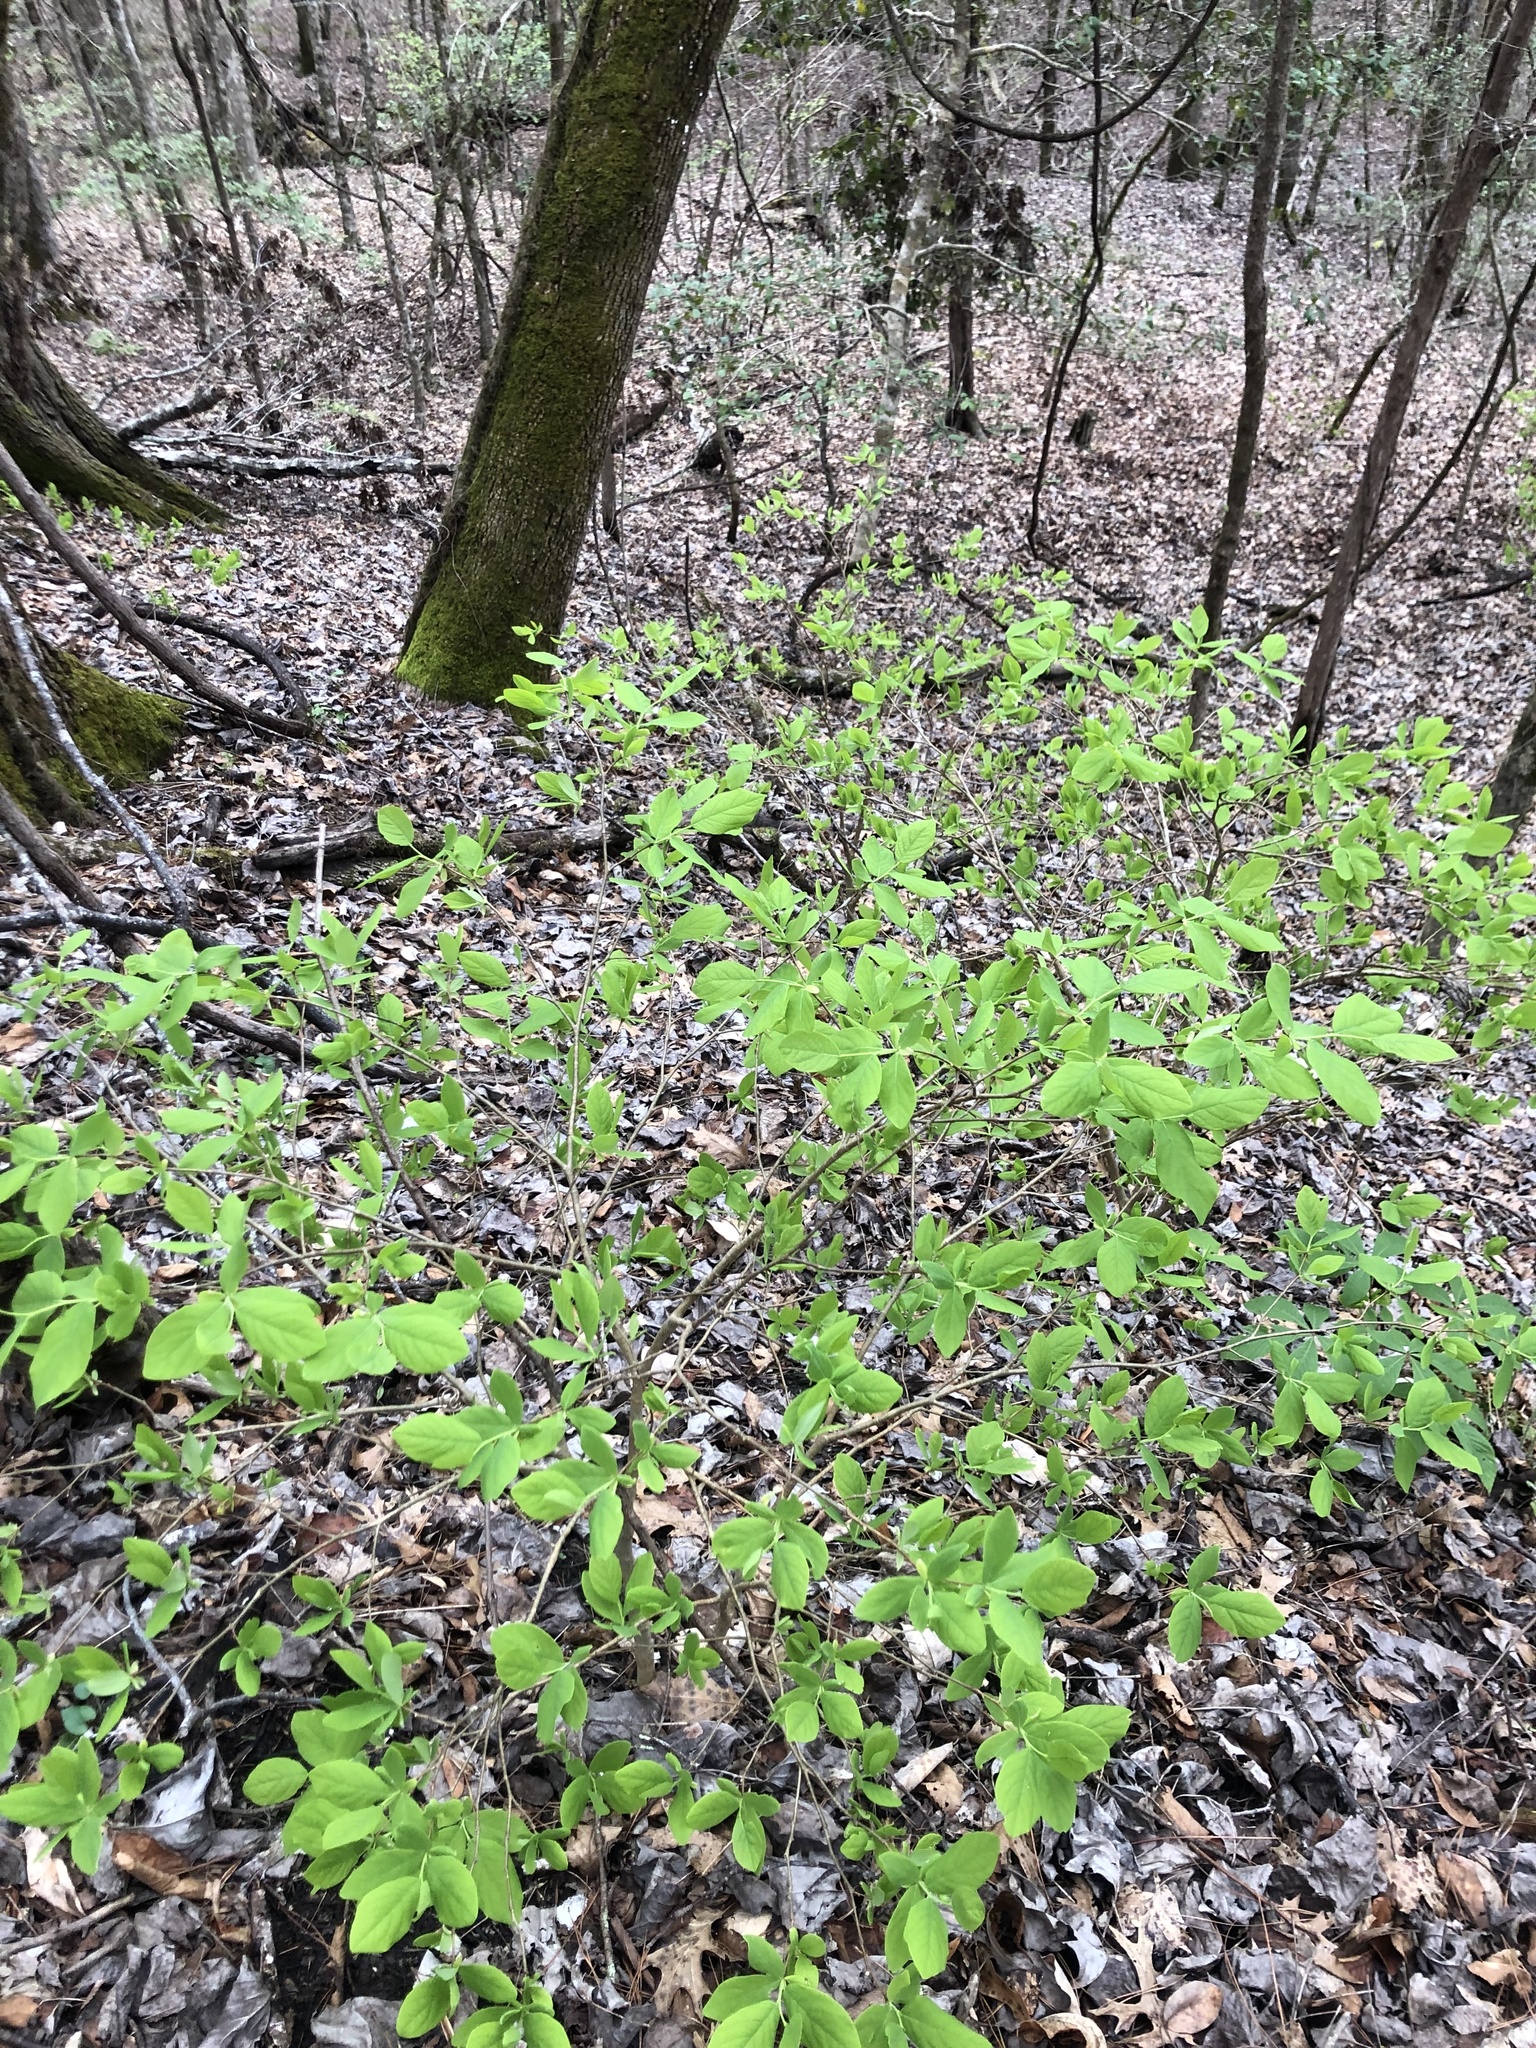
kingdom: Plantae
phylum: Tracheophyta
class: Magnoliopsida
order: Malvales
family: Thymelaeaceae
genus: Dirca
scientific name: Dirca palustris
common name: Leatherwood
